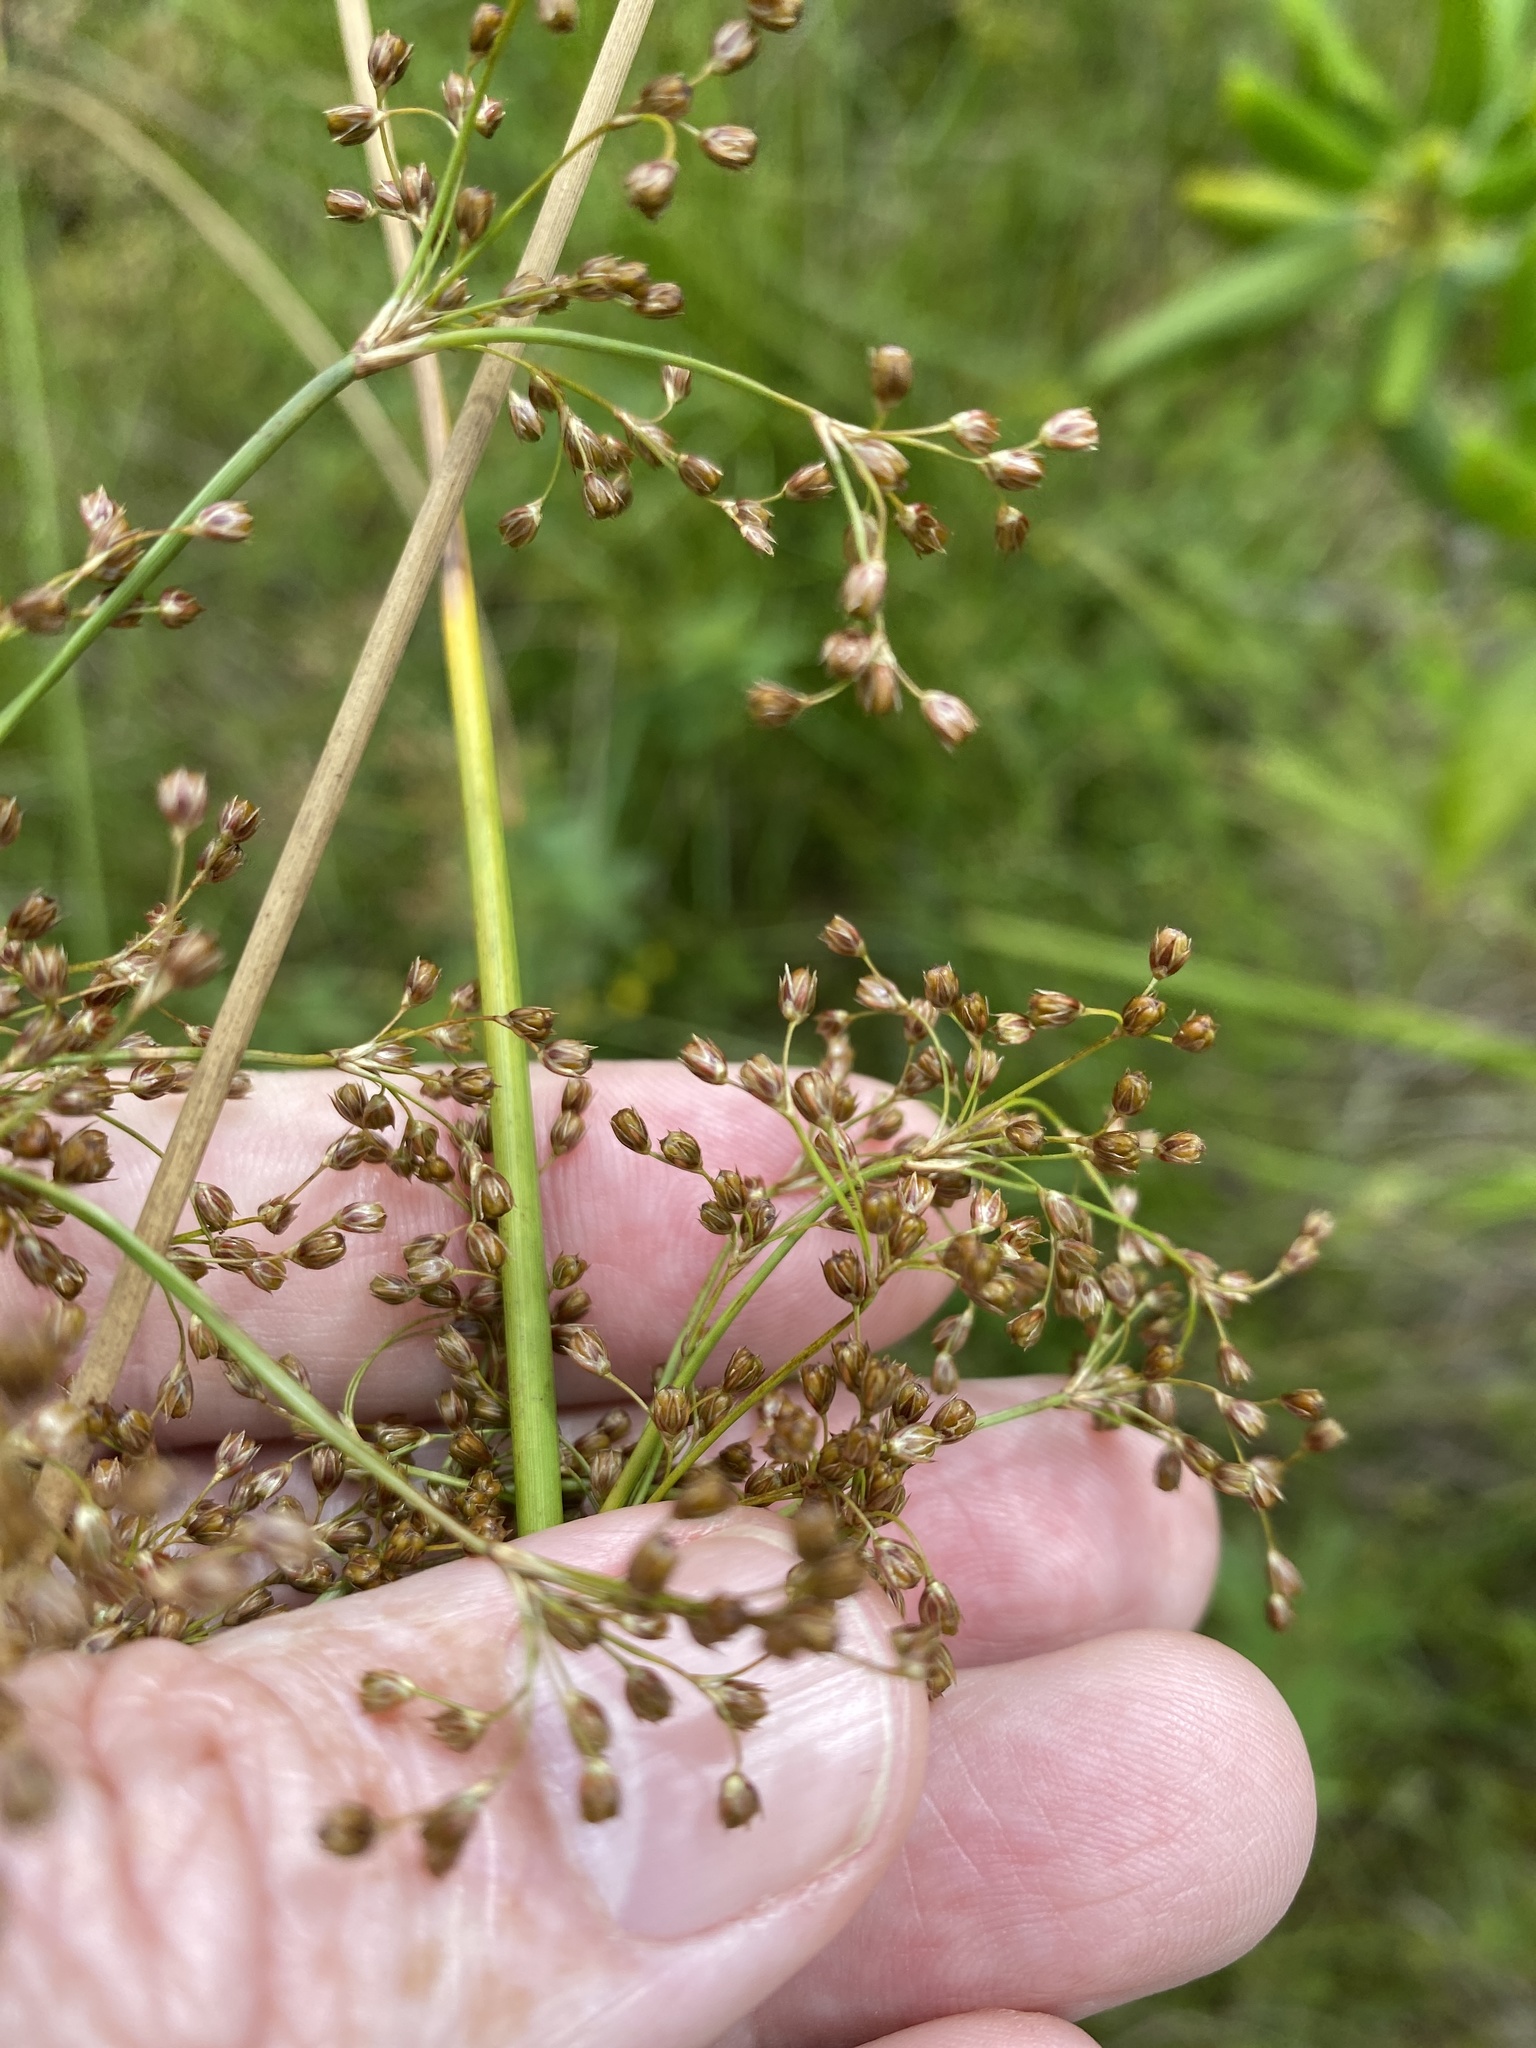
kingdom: Plantae
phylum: Tracheophyta
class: Liliopsida
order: Poales
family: Juncaceae
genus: Juncus
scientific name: Juncus effusus
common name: Soft rush
